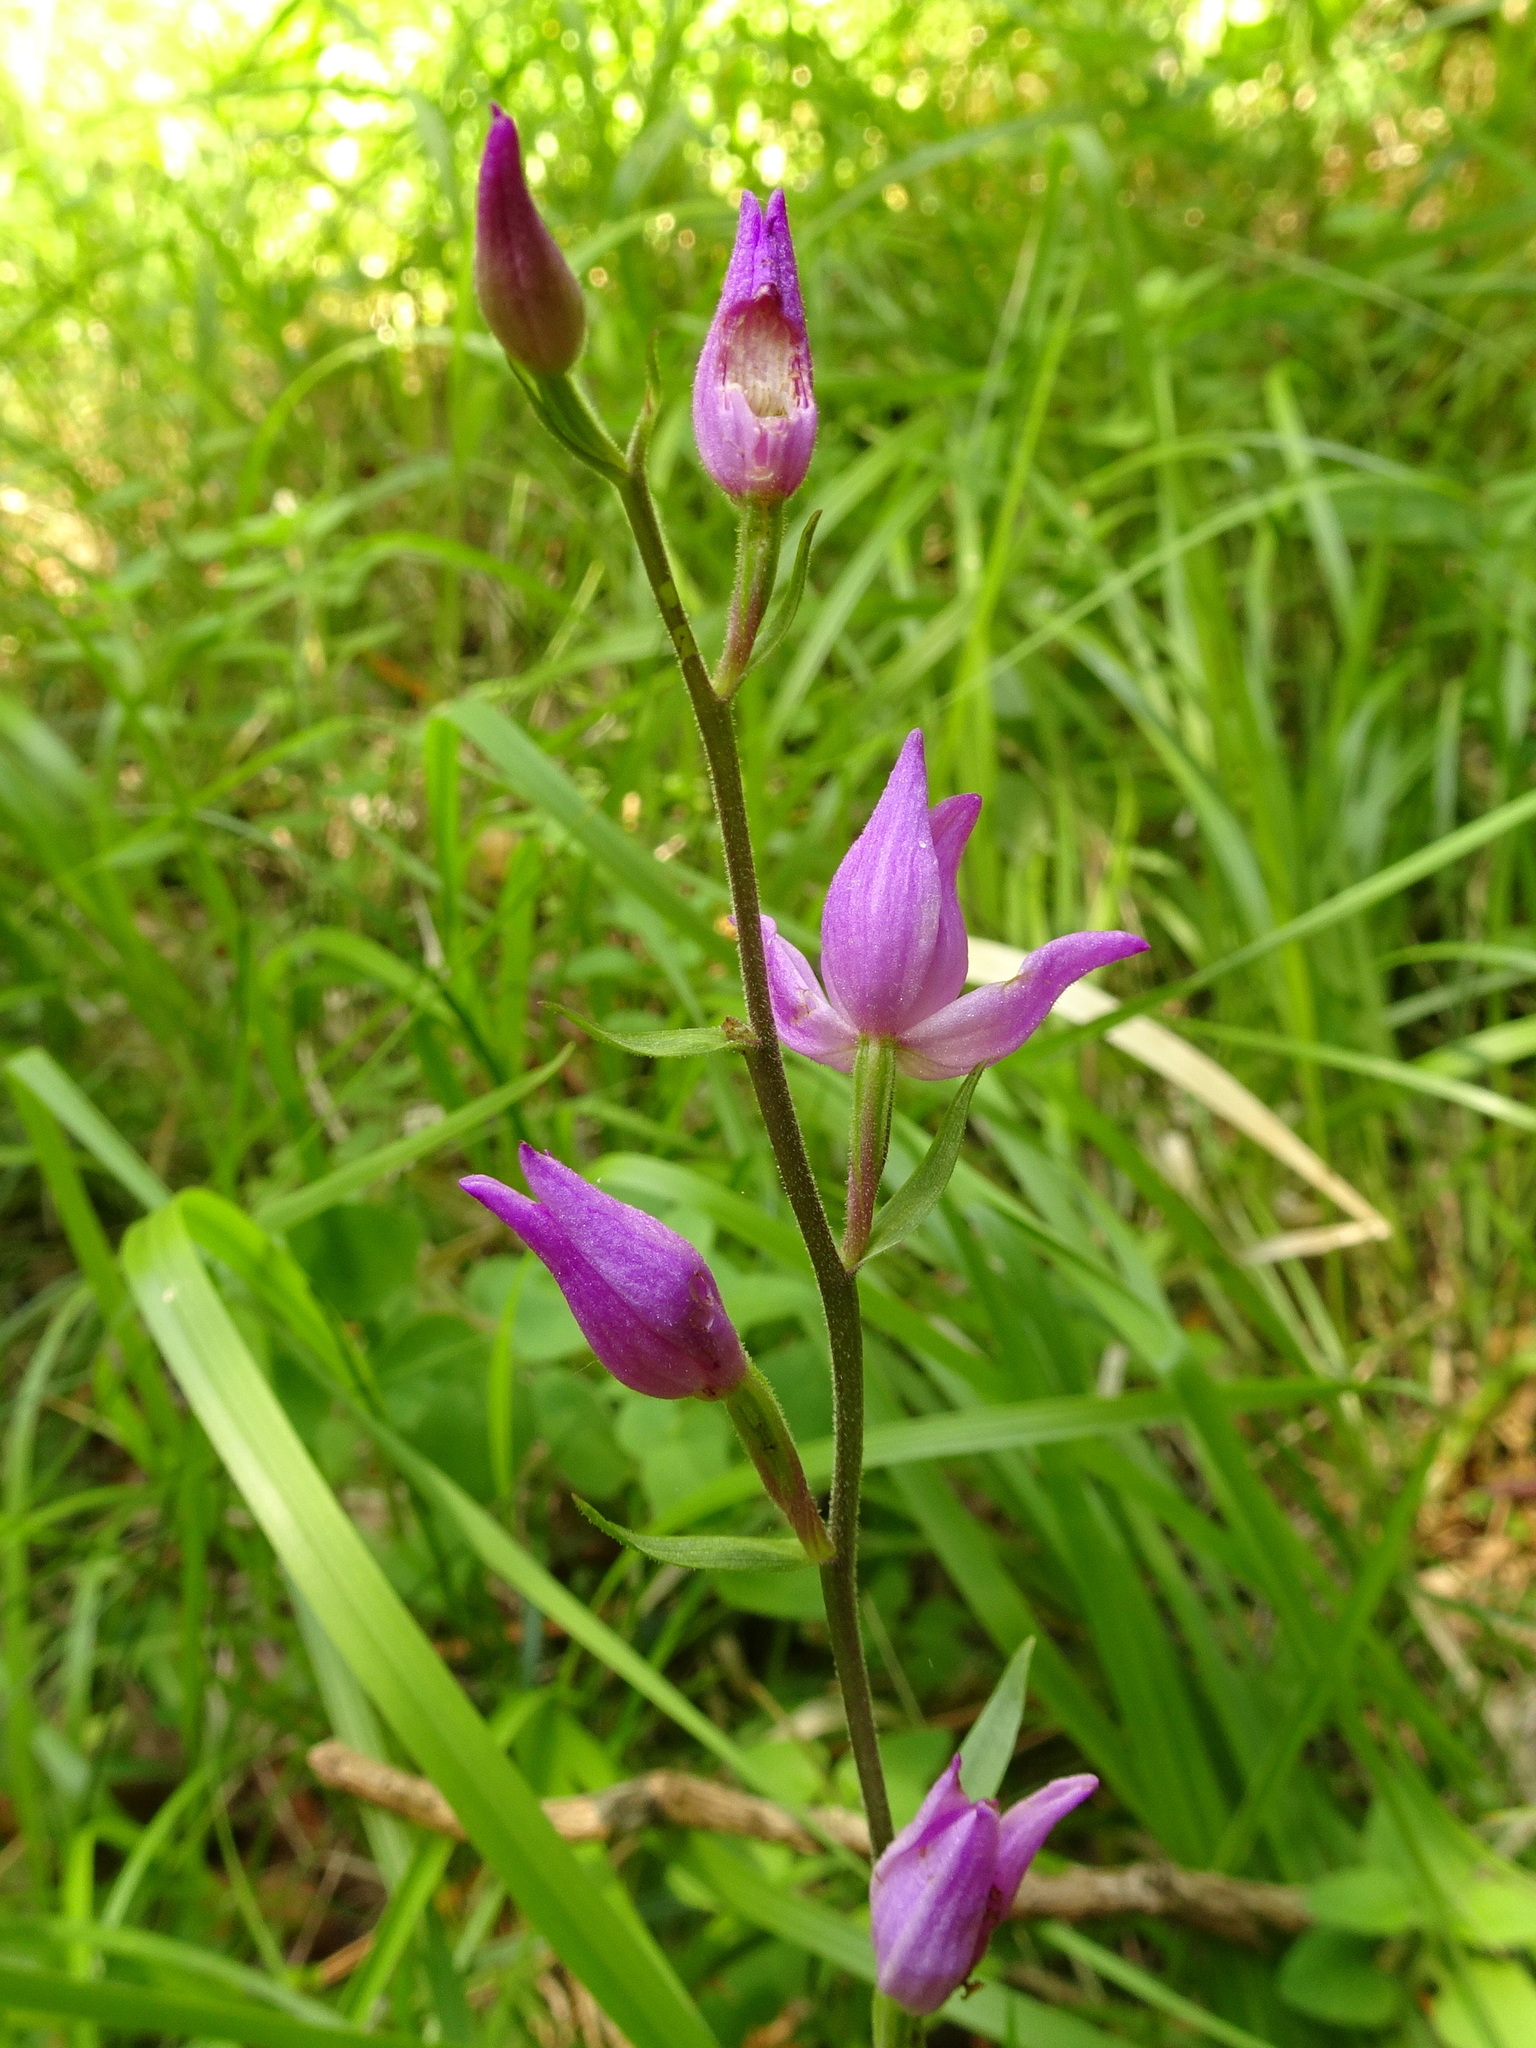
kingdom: Plantae
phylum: Tracheophyta
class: Liliopsida
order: Asparagales
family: Orchidaceae
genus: Cephalanthera
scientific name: Cephalanthera rubra
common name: Red helleborine
